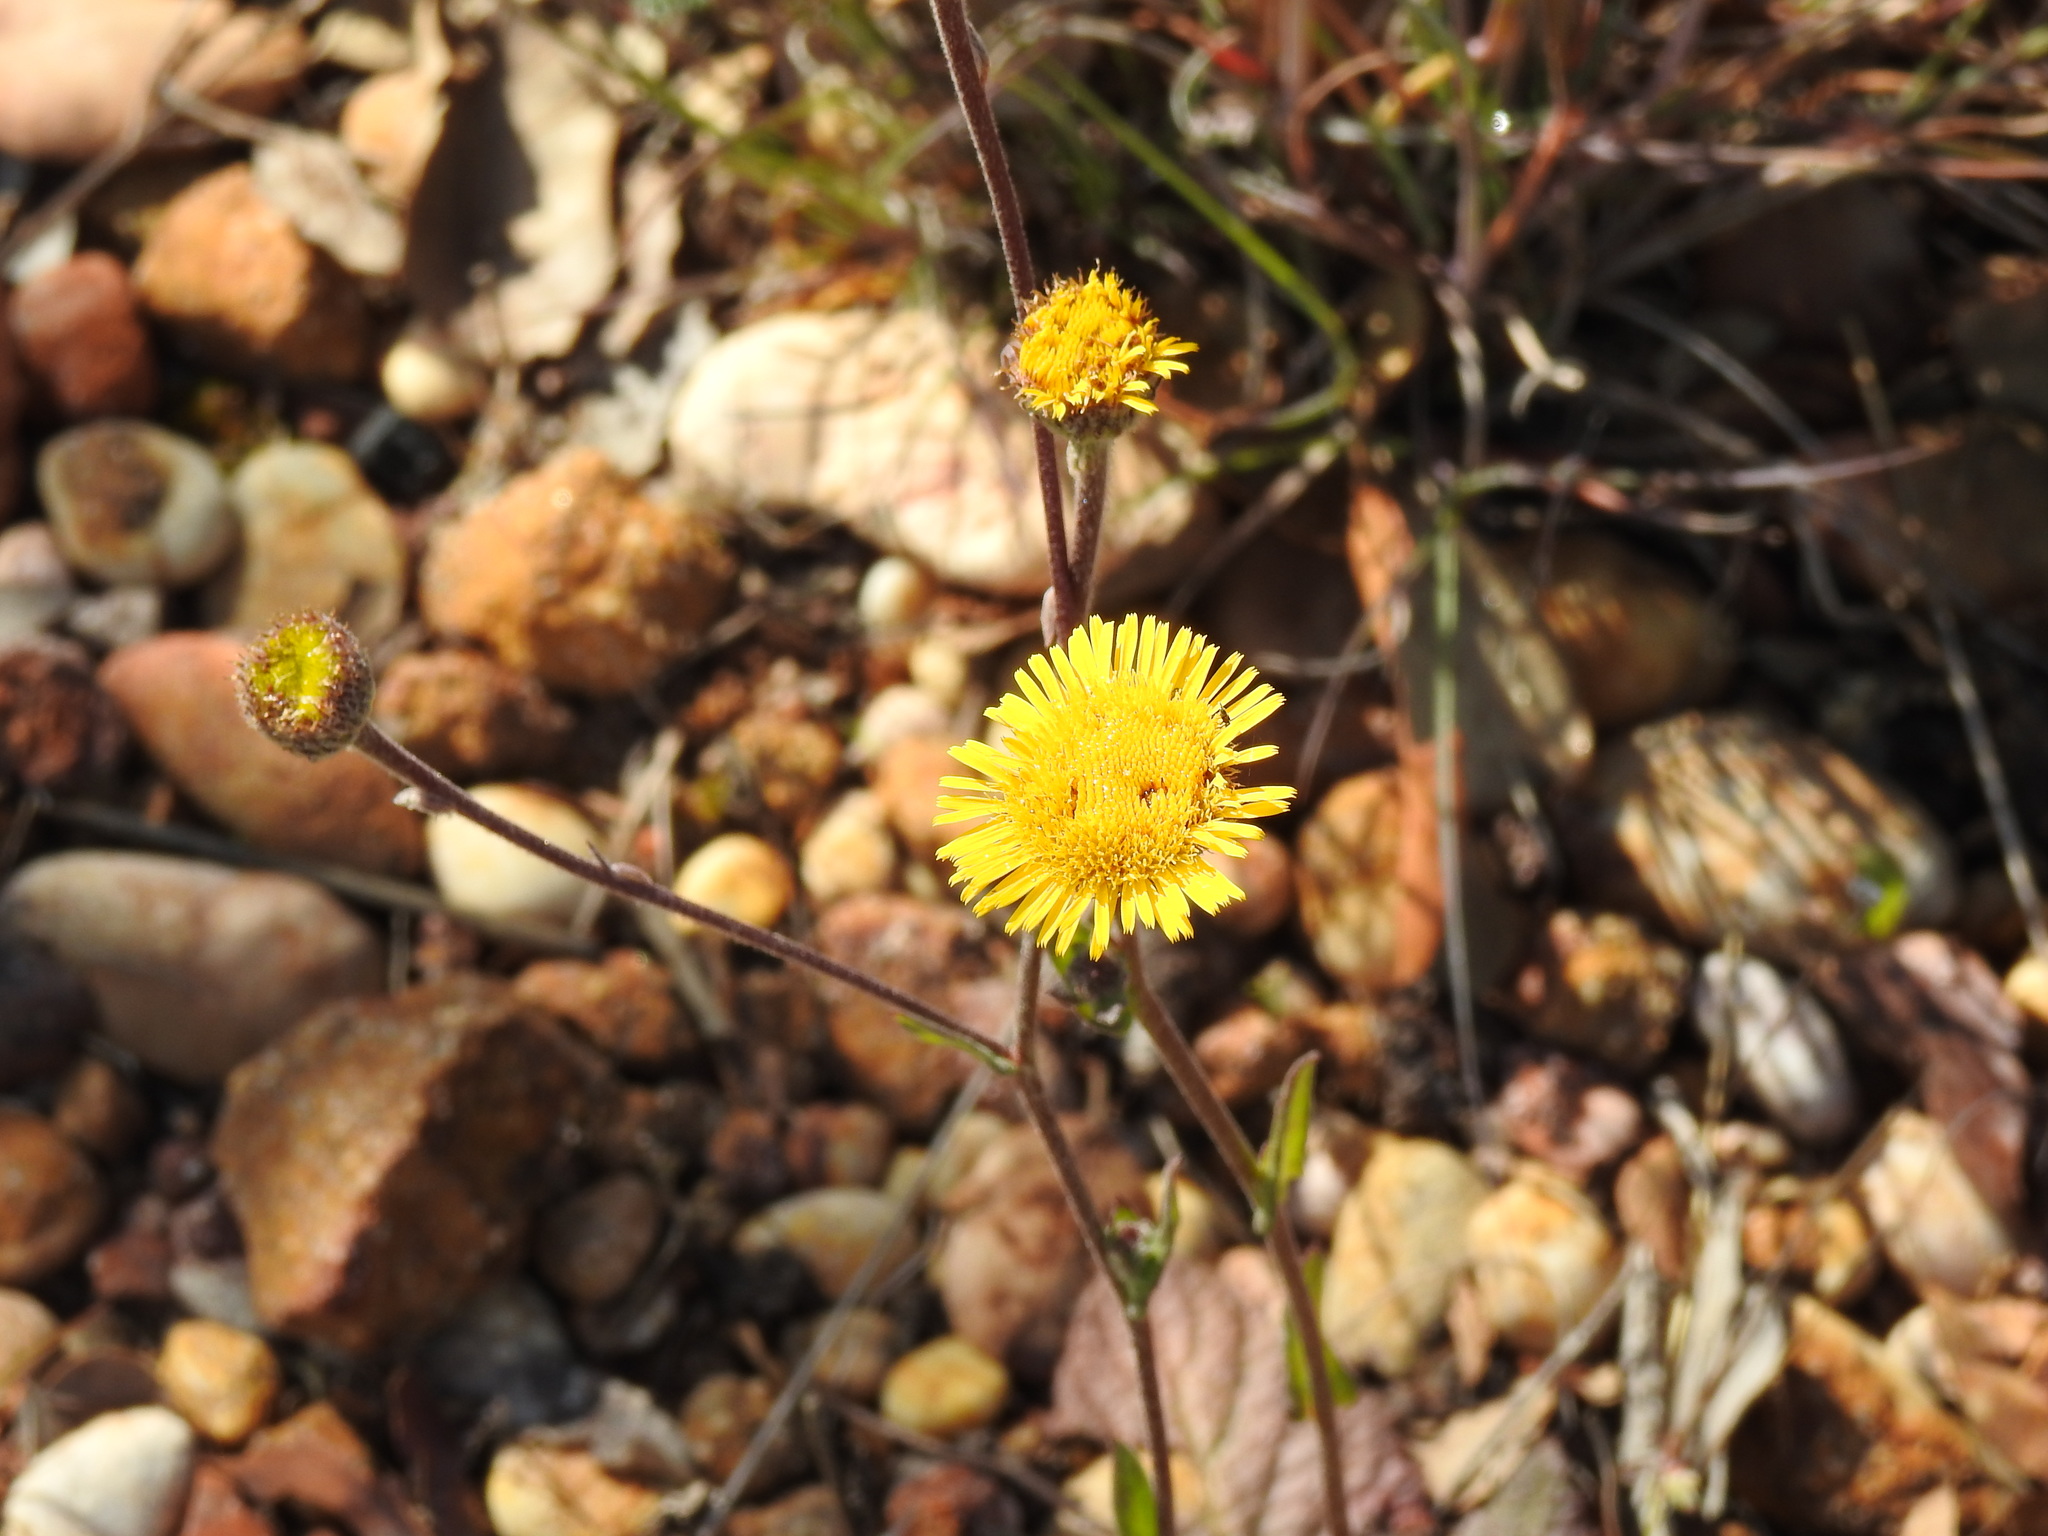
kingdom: Plantae
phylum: Tracheophyta
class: Magnoliopsida
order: Asterales
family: Asteraceae
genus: Pulicaria
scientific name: Pulicaria odora
